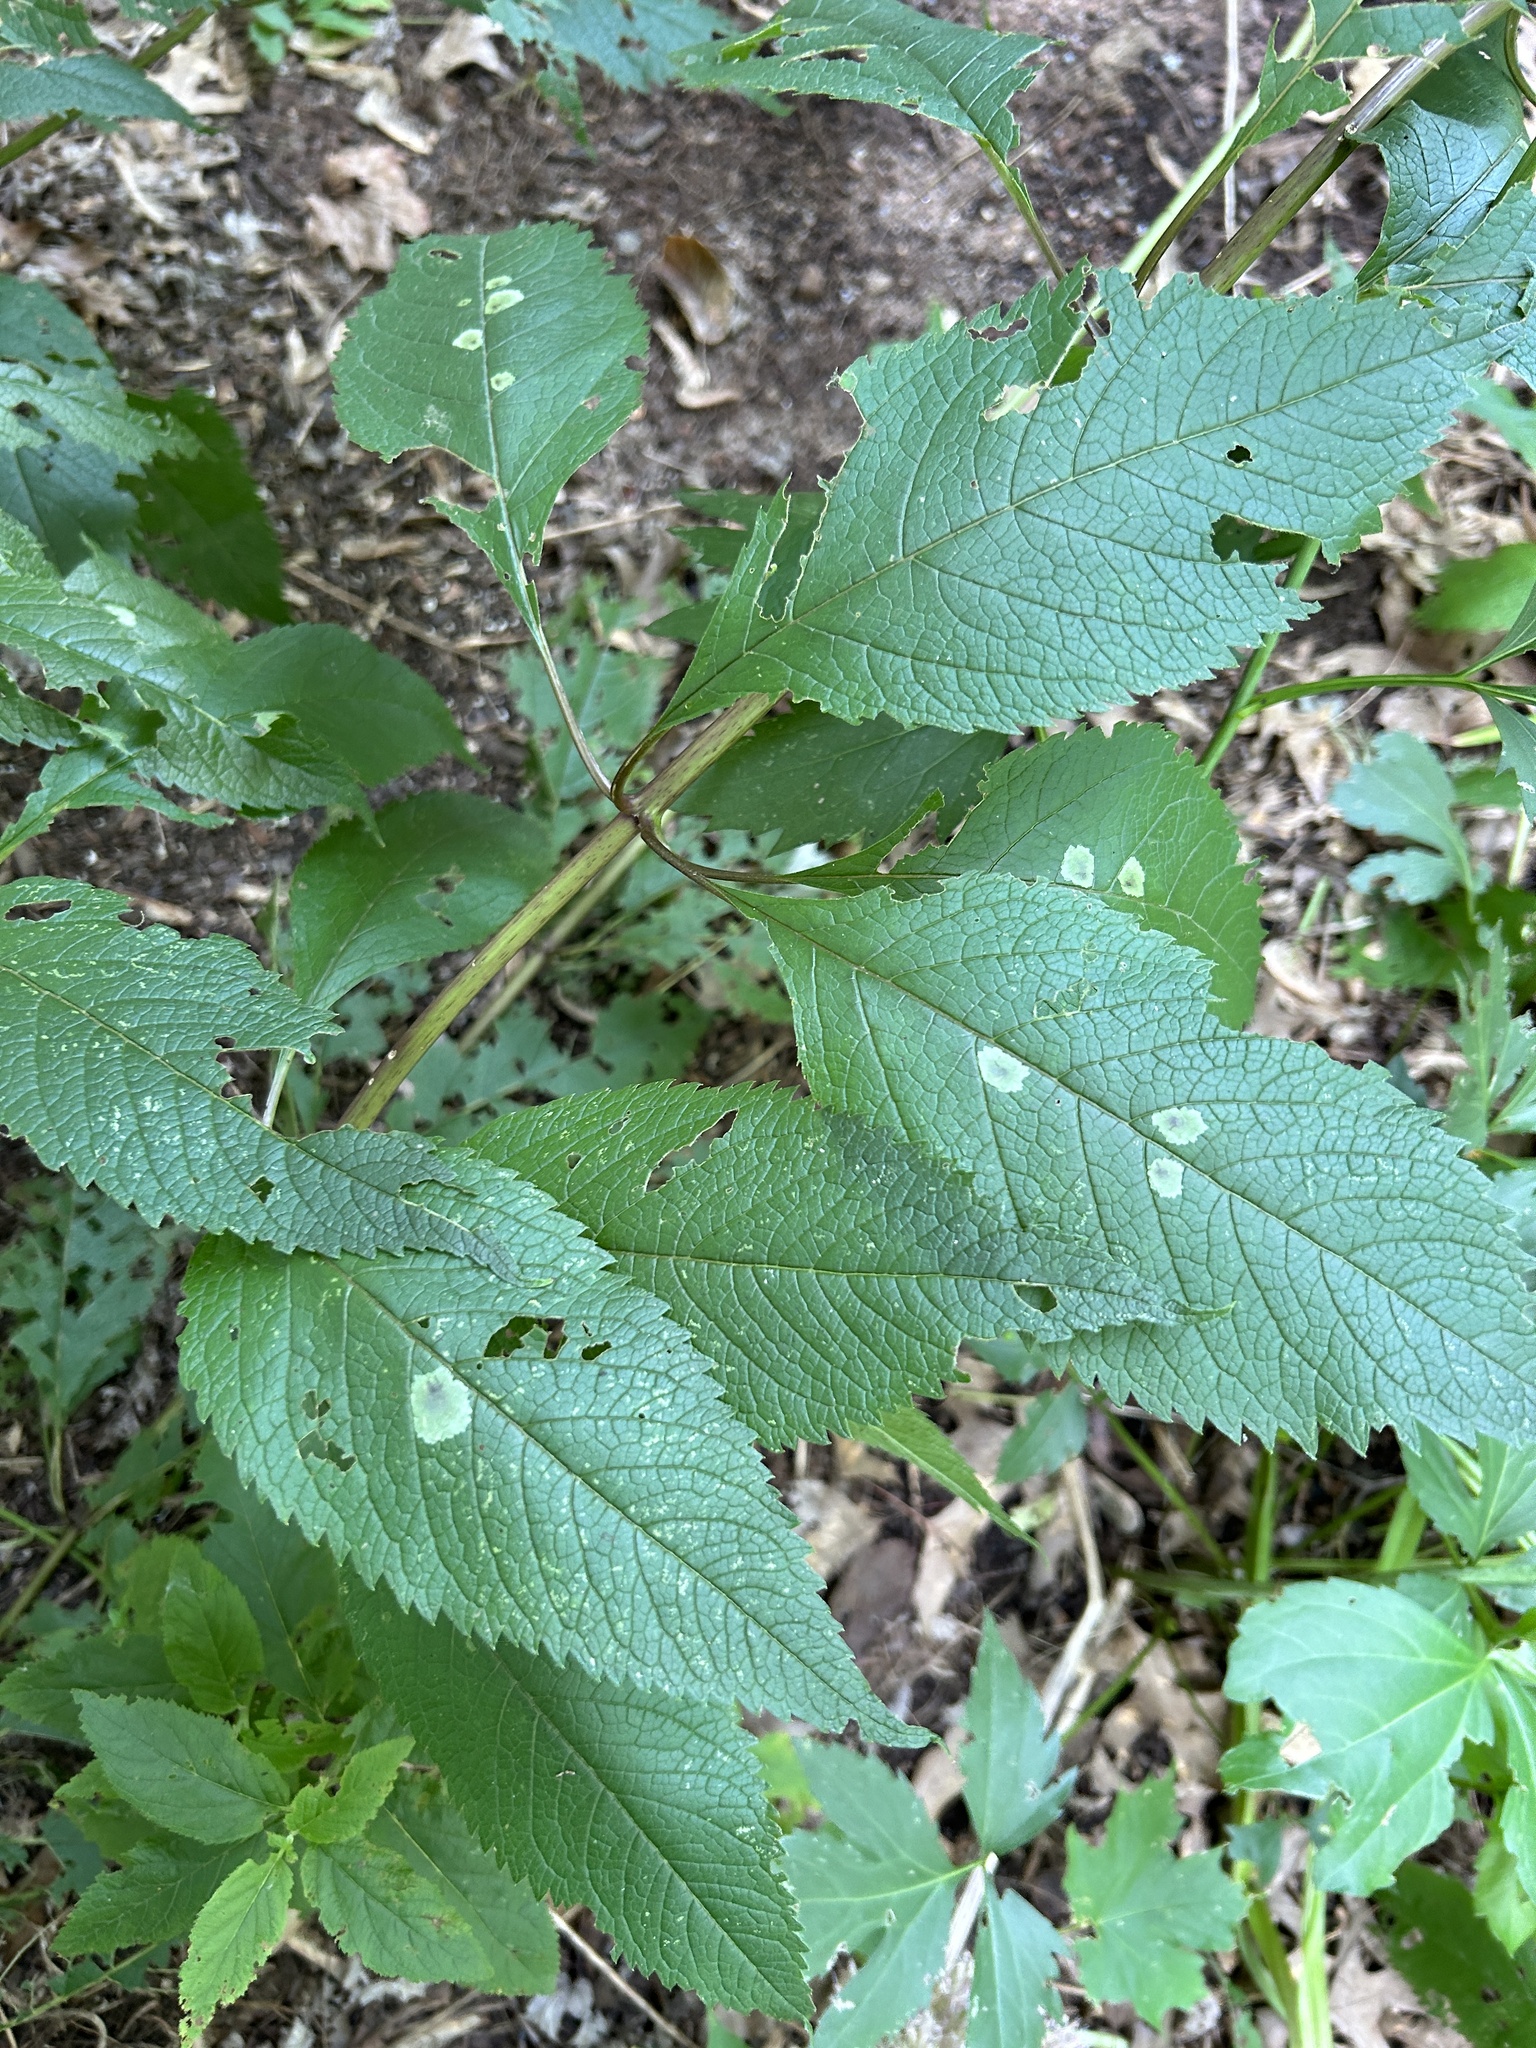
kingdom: Animalia
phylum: Arthropoda
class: Insecta
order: Diptera
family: Agromyzidae
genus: Calycomyza
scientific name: Calycomyza flavinotum
